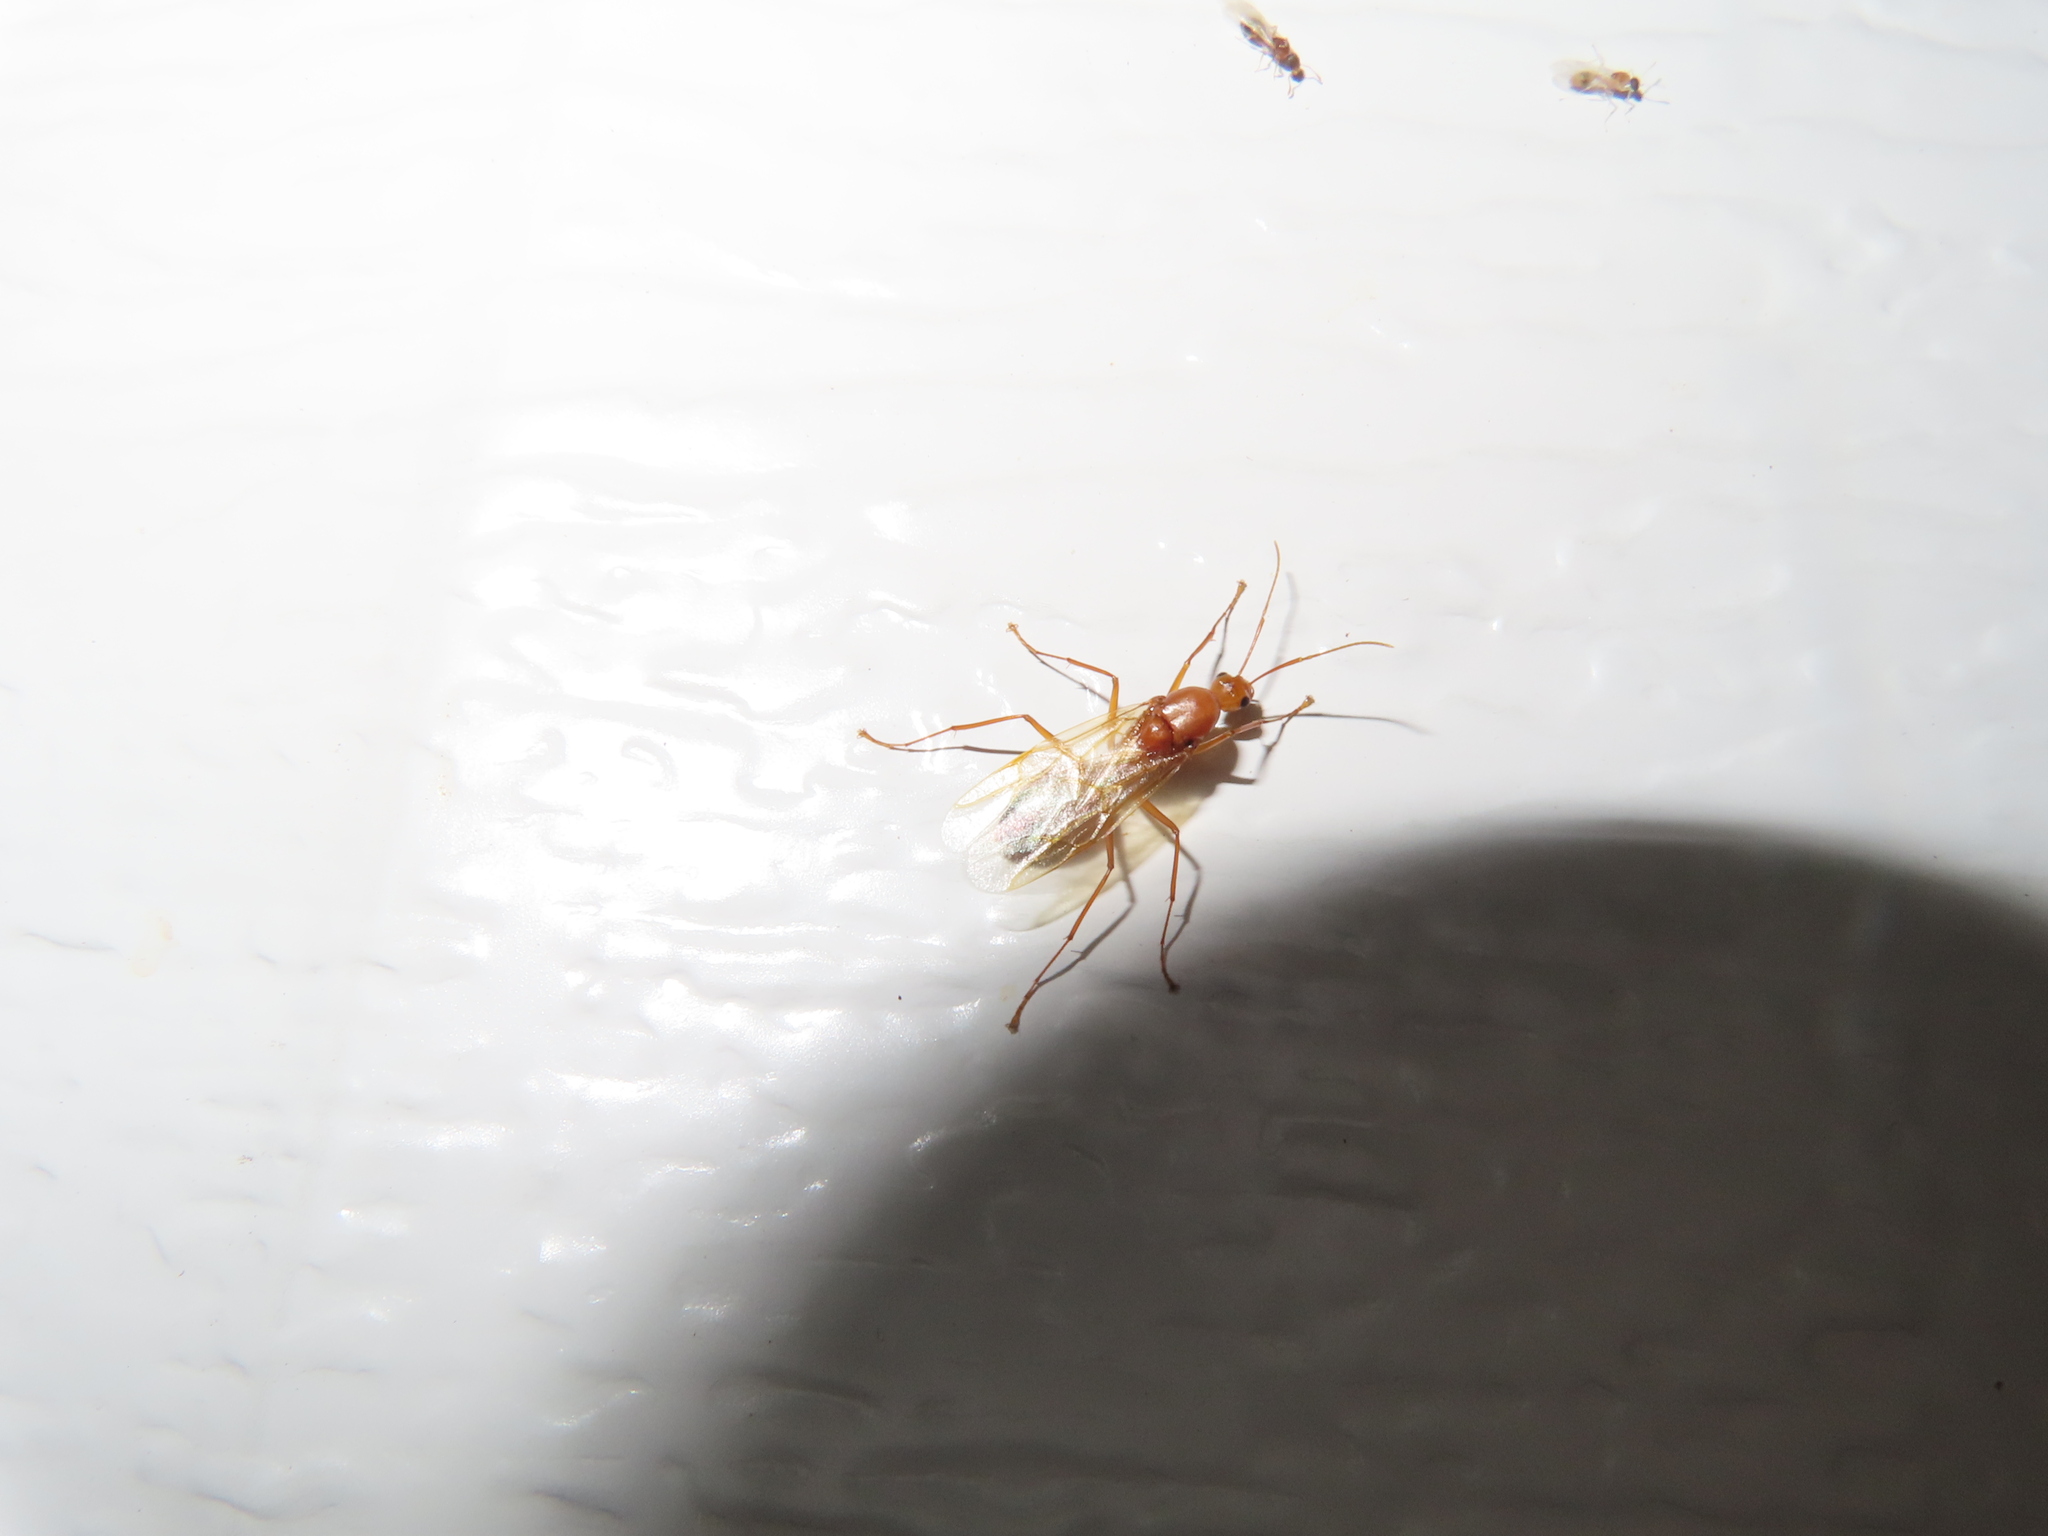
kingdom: Animalia
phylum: Arthropoda
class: Insecta
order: Hymenoptera
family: Formicidae
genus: Camponotus
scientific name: Camponotus castaneus
